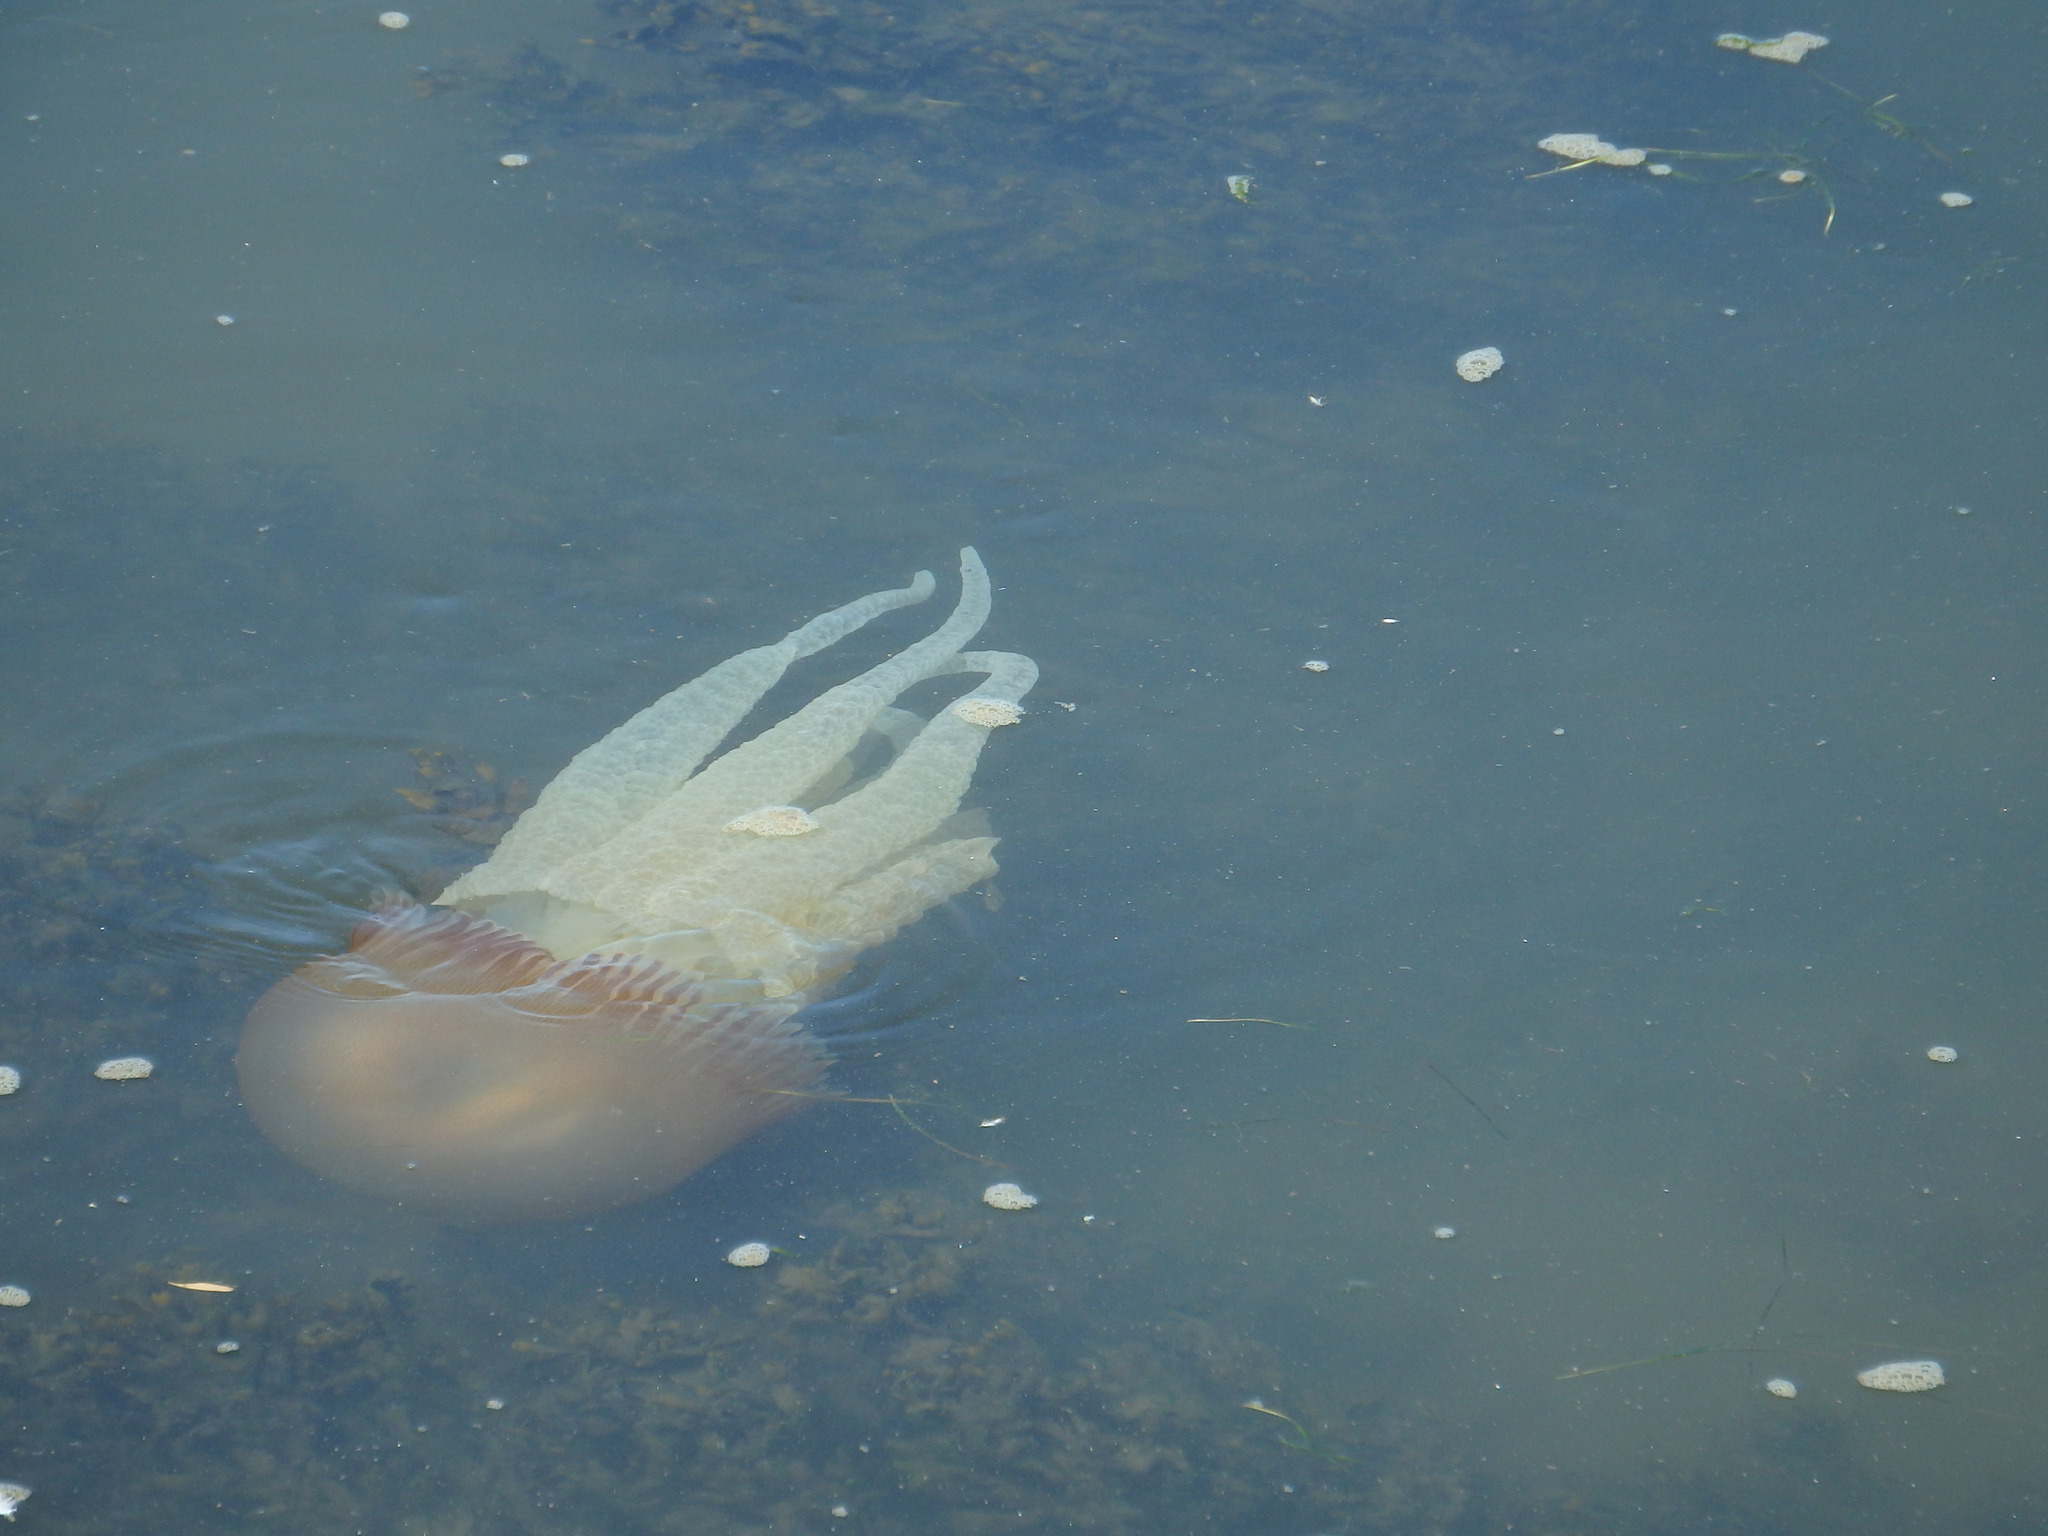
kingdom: Animalia
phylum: Cnidaria
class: Scyphozoa
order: Rhizostomeae
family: Catostylidae
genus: Catostylus
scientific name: Catostylus tagi
